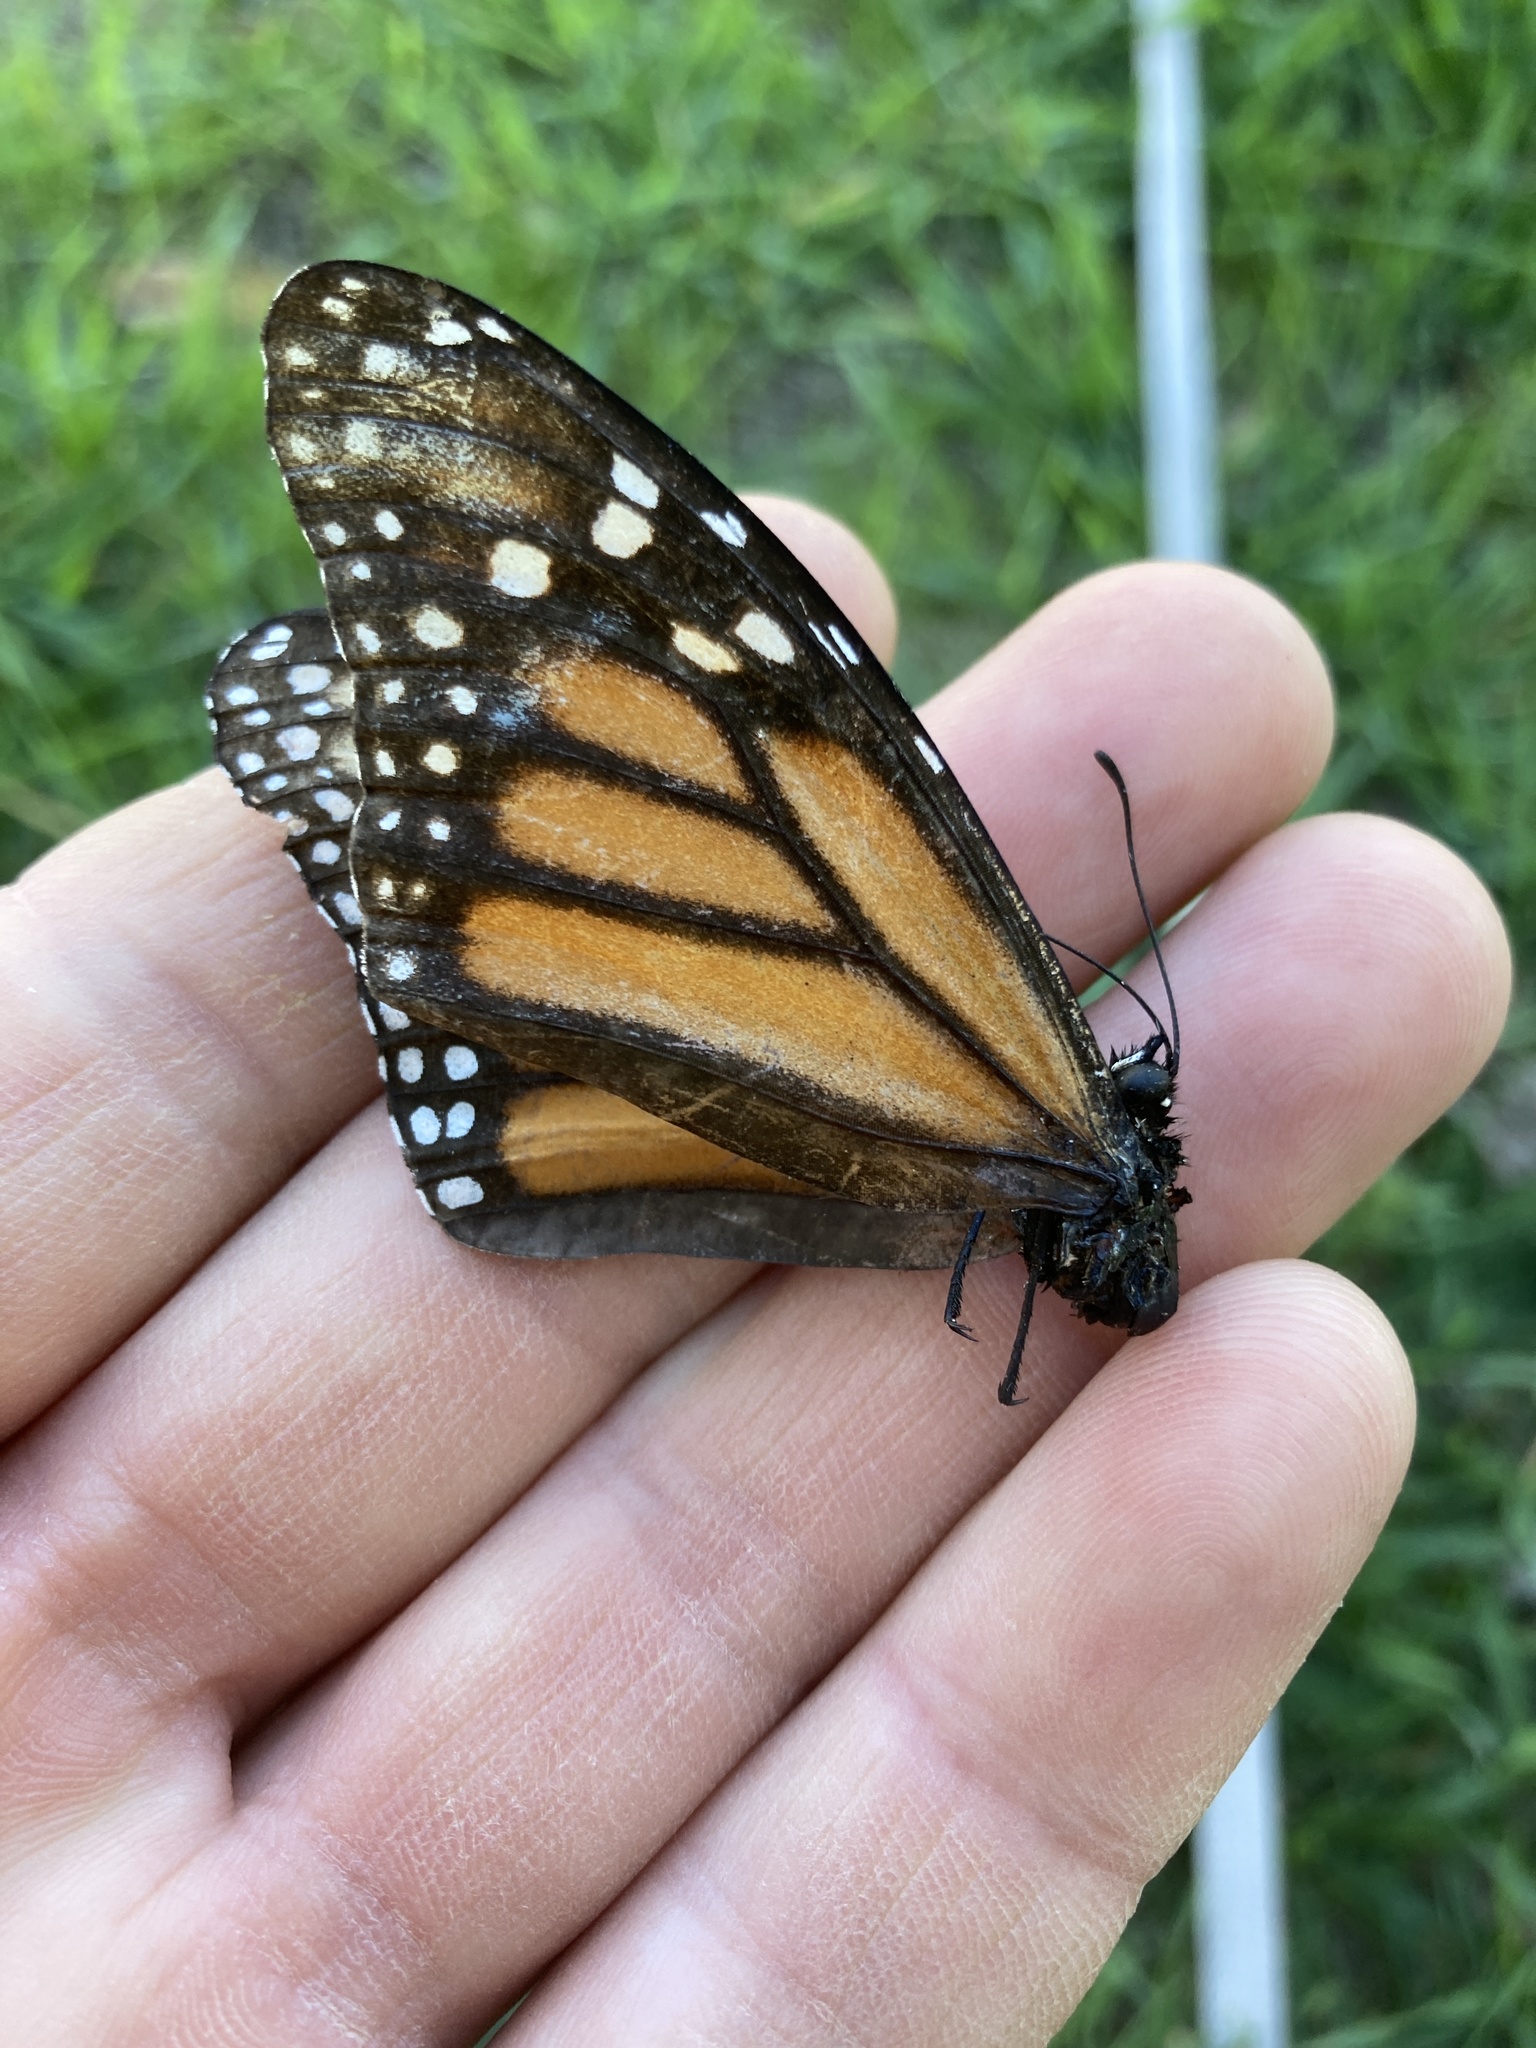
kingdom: Animalia
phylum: Arthropoda
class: Insecta
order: Lepidoptera
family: Nymphalidae
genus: Danaus
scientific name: Danaus plexippus
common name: Monarch
